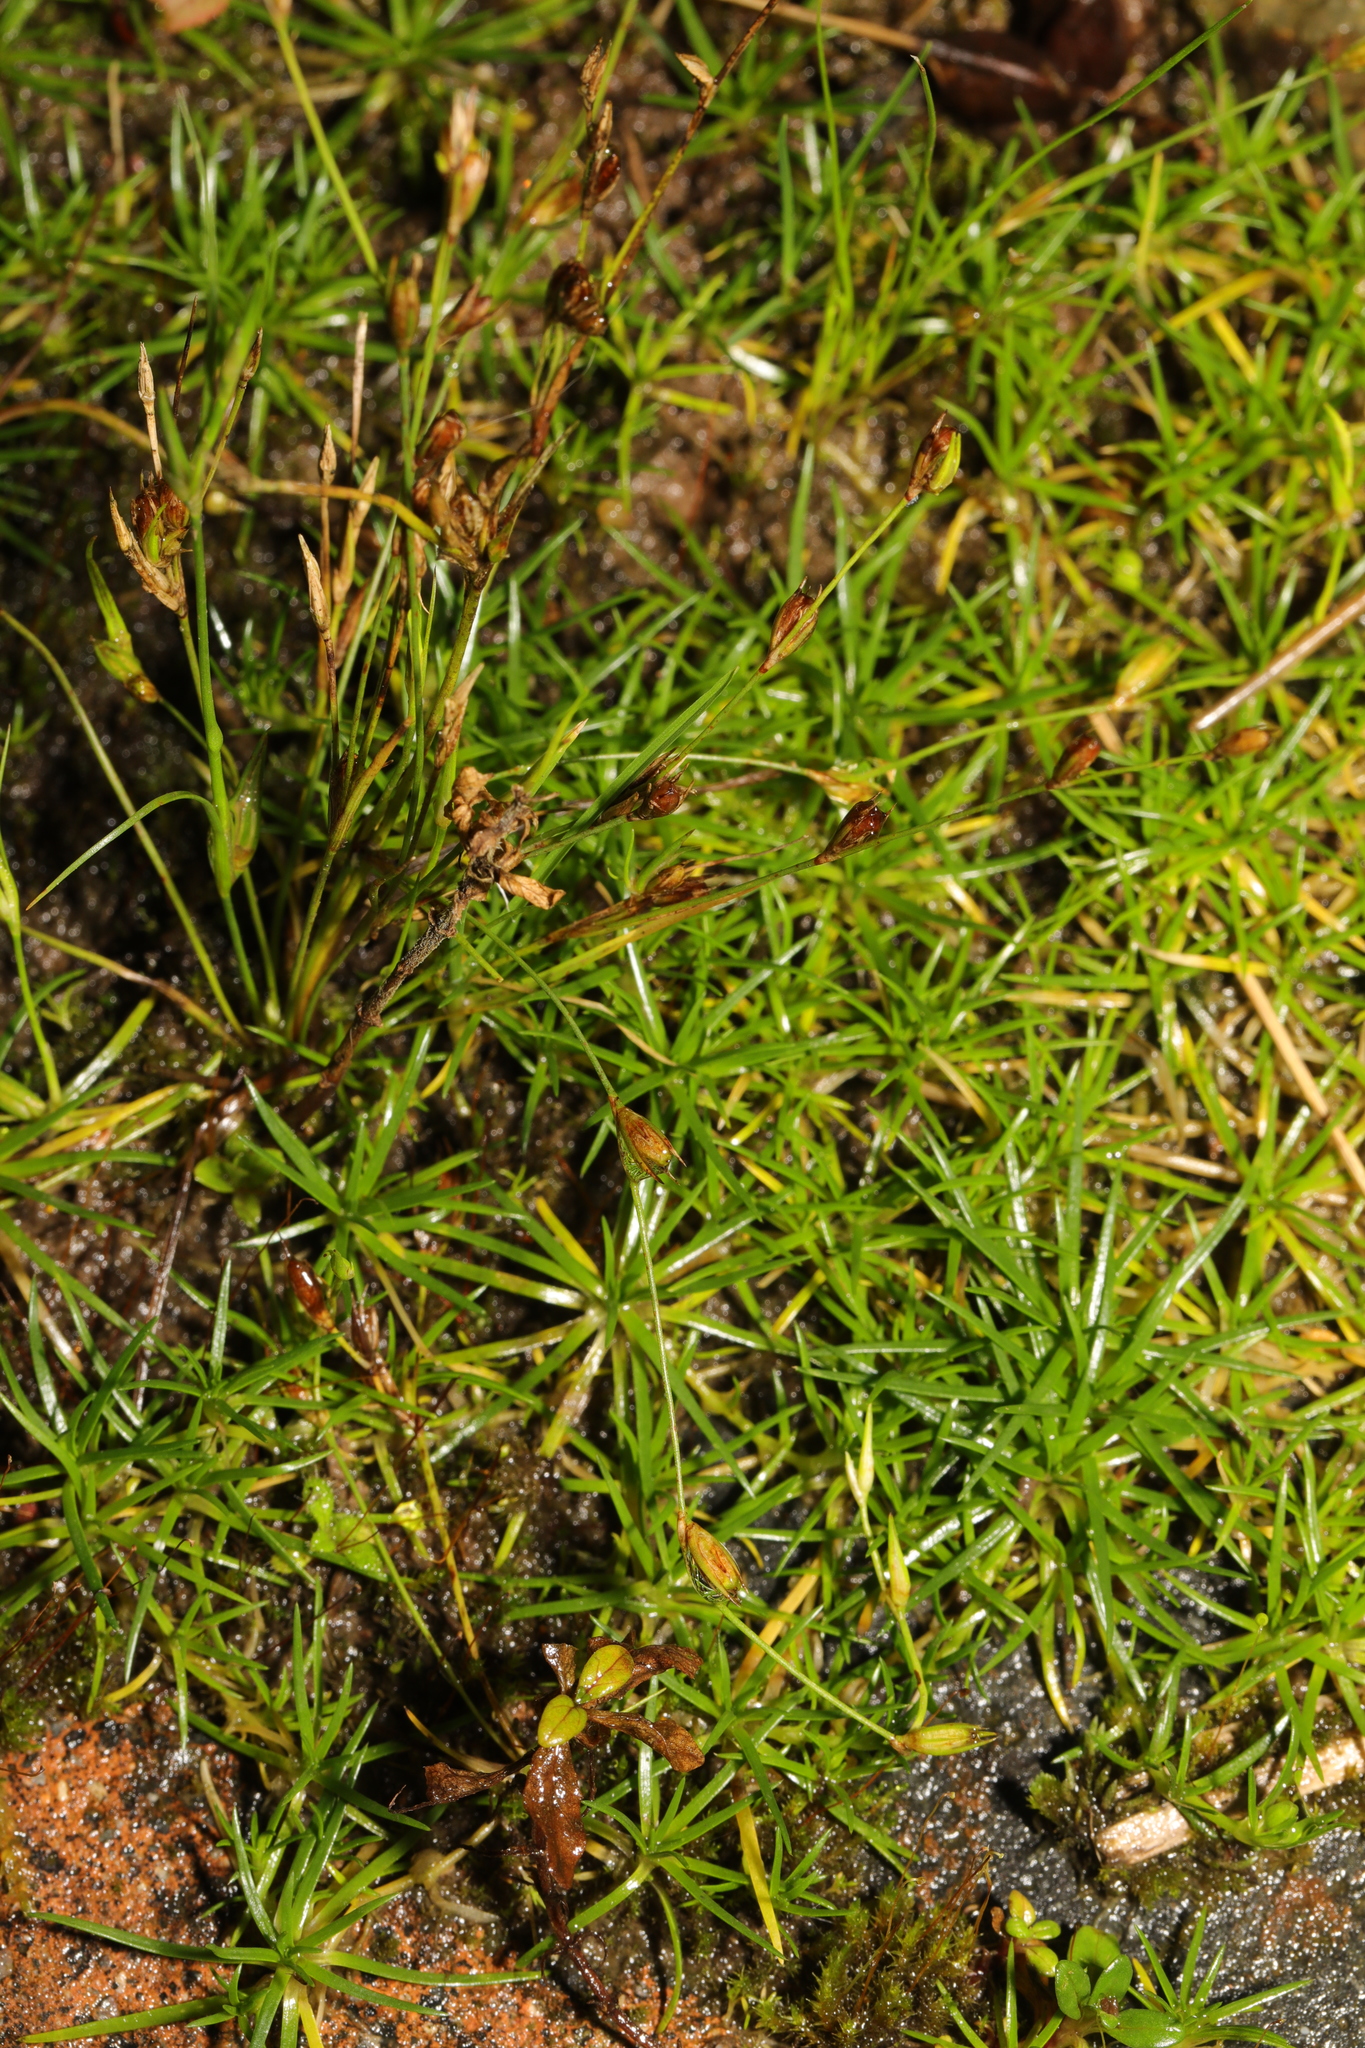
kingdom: Plantae
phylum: Tracheophyta
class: Magnoliopsida
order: Caryophyllales
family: Caryophyllaceae
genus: Sagina
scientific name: Sagina procumbens
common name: Procumbent pearlwort
